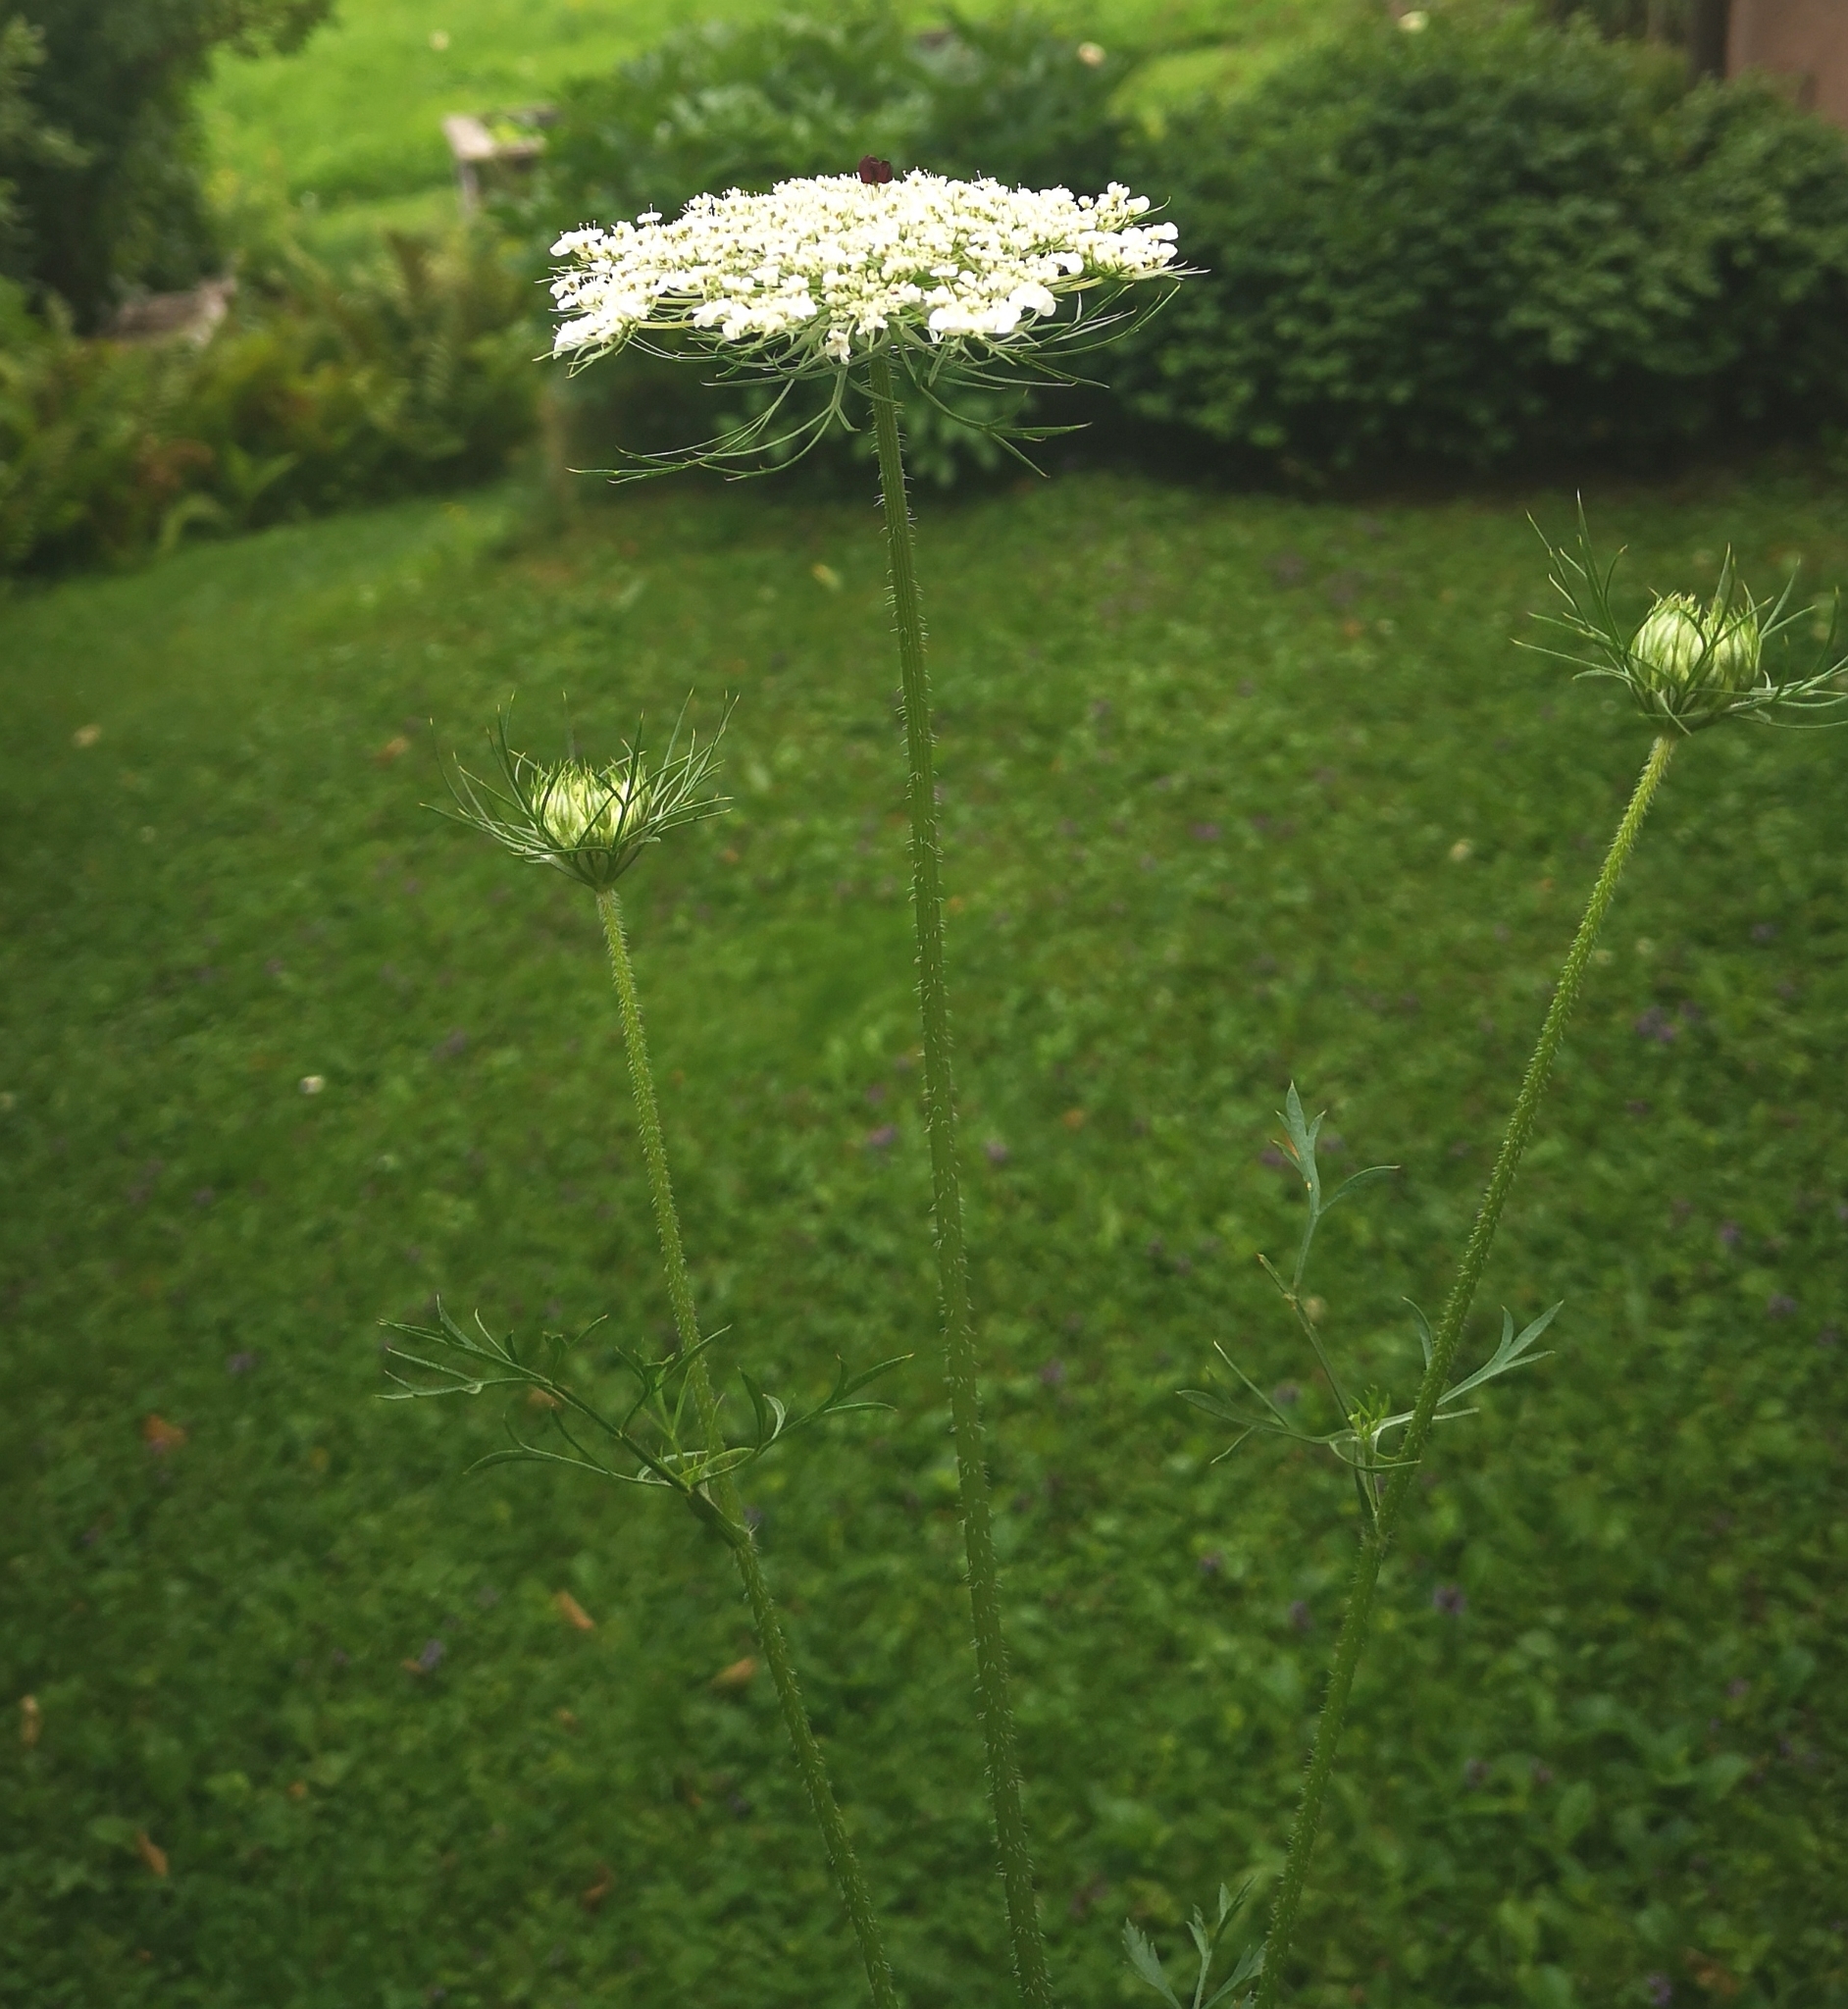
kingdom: Plantae
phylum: Tracheophyta
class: Magnoliopsida
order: Apiales
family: Apiaceae
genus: Daucus
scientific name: Daucus carota
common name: Wild carrot
